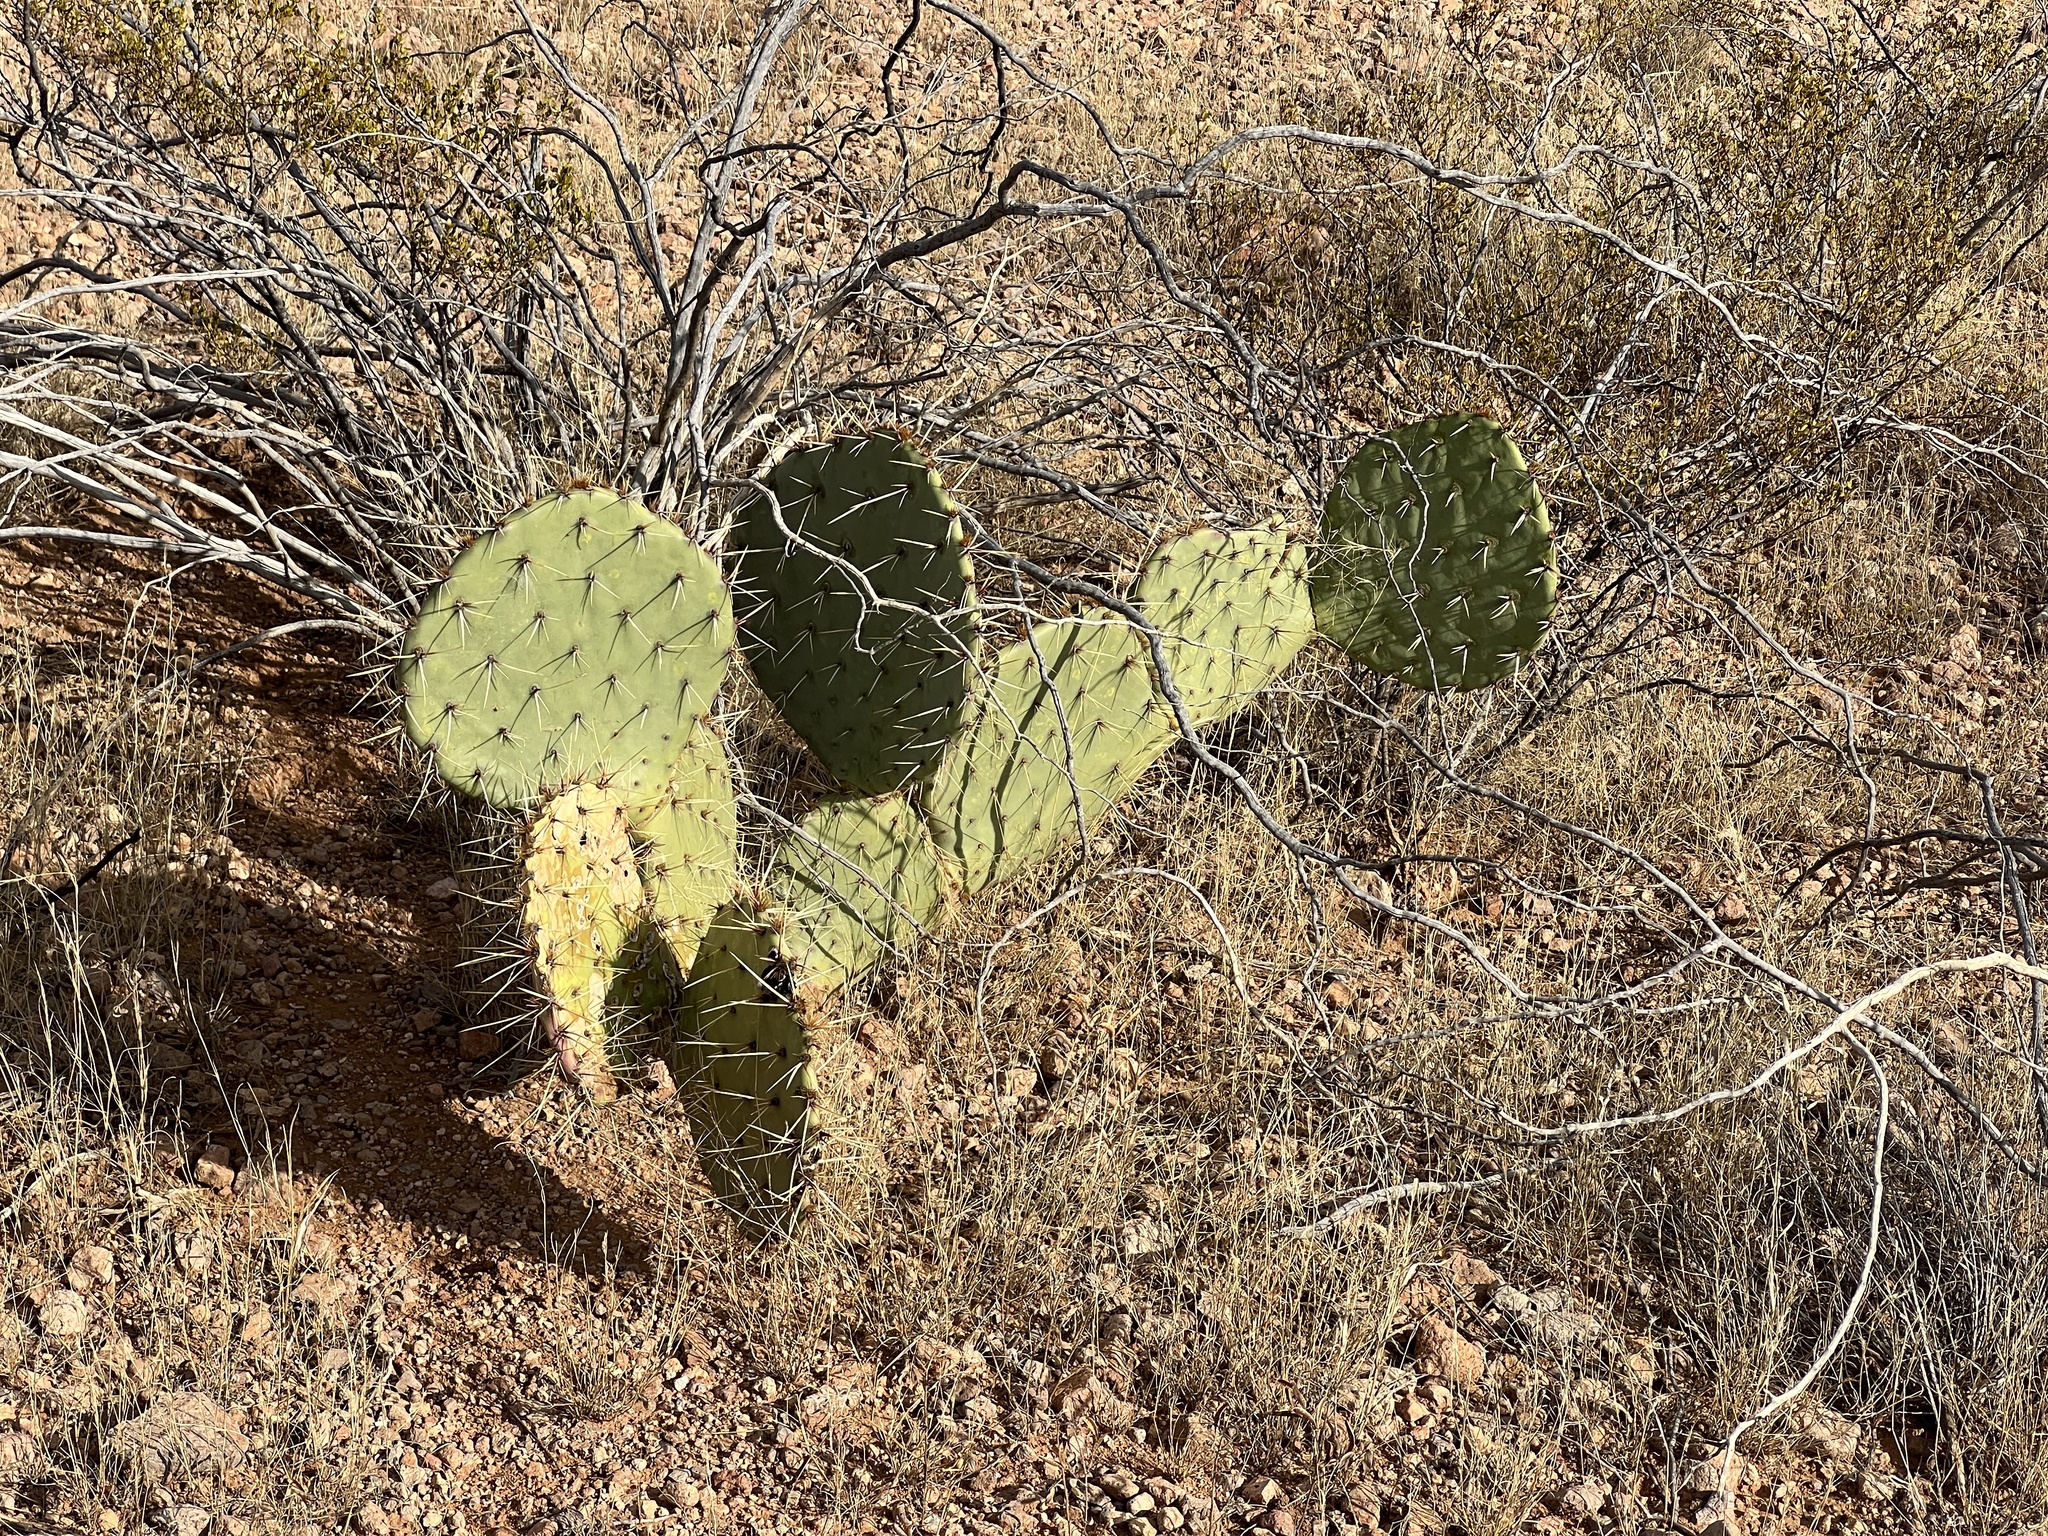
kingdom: Plantae
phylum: Tracheophyta
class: Magnoliopsida
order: Caryophyllales
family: Cactaceae
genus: Opuntia
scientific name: Opuntia engelmannii
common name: Cactus-apple
